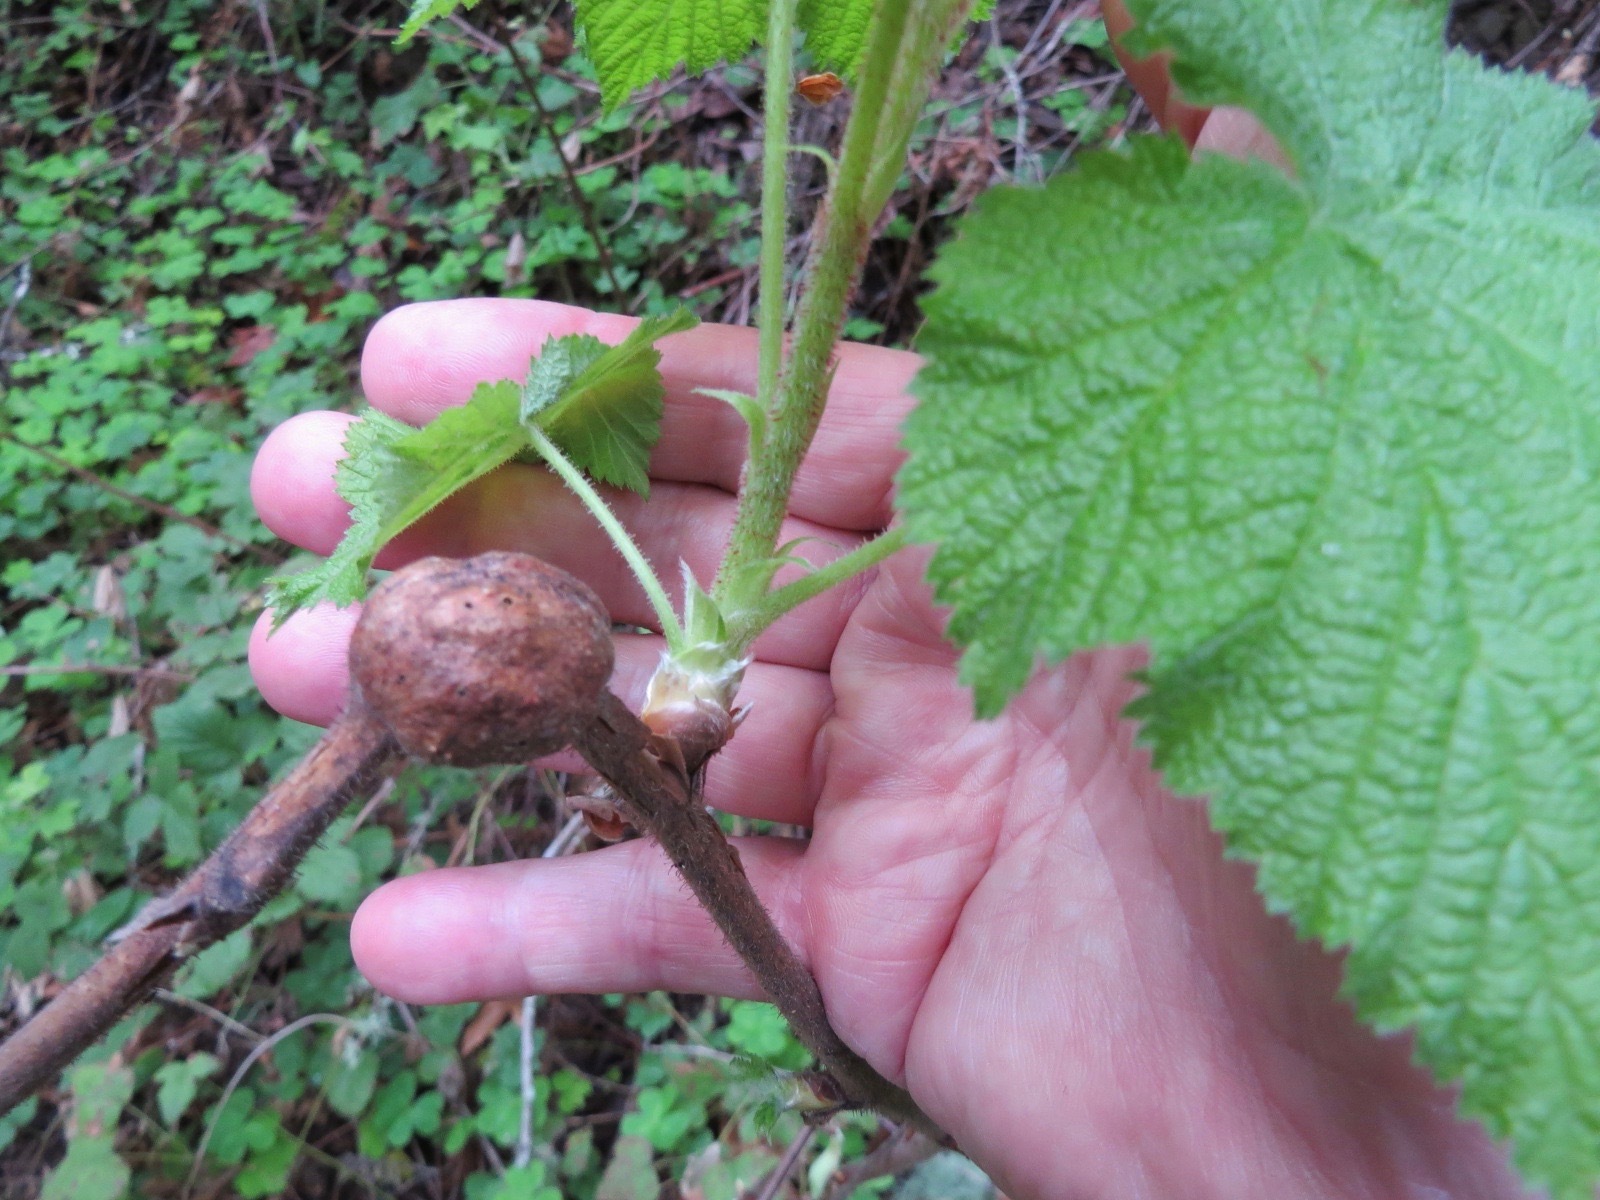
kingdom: Animalia
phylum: Arthropoda
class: Insecta
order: Hymenoptera
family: Cynipidae
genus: Diastrophus
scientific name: Diastrophus
